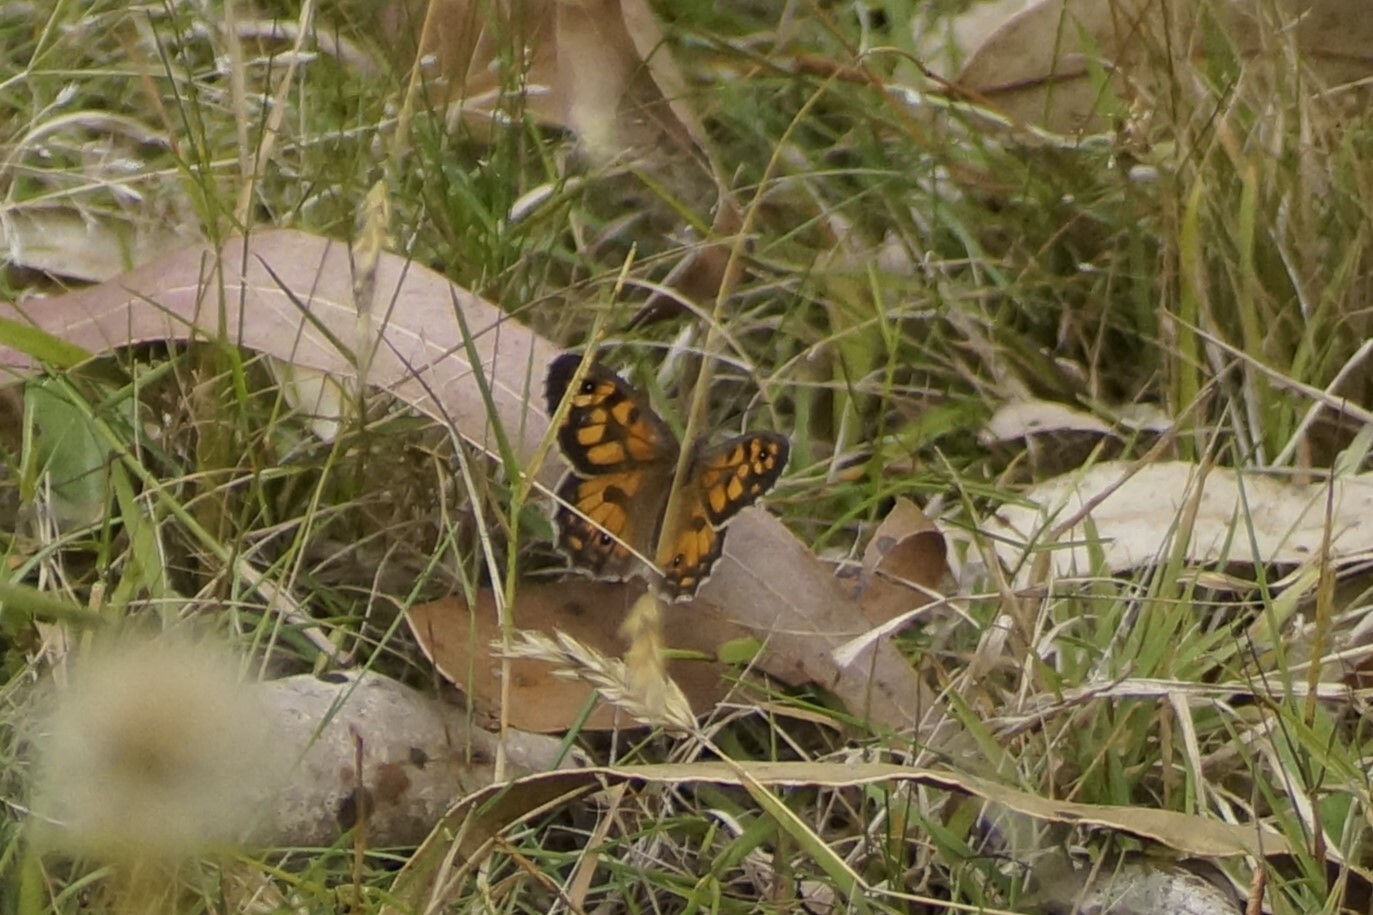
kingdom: Animalia
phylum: Arthropoda
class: Insecta
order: Lepidoptera
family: Nymphalidae
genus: Geitoneura
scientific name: Geitoneura klugii
